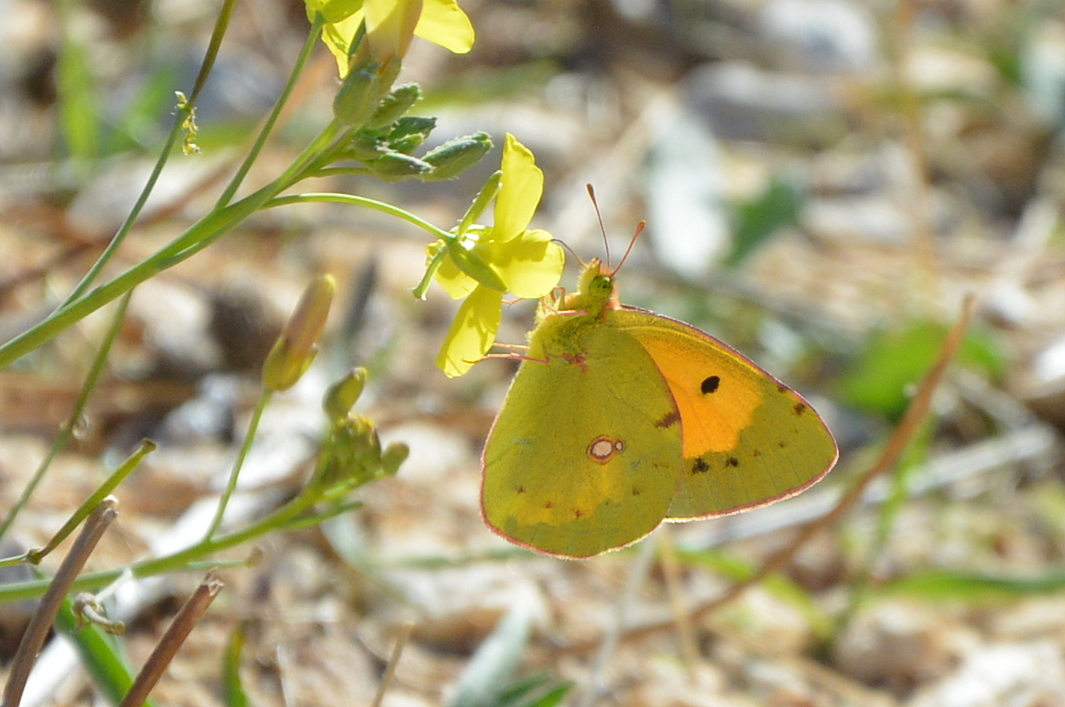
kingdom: Animalia
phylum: Arthropoda
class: Insecta
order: Lepidoptera
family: Pieridae
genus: Colias
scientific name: Colias croceus
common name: Clouded yellow
